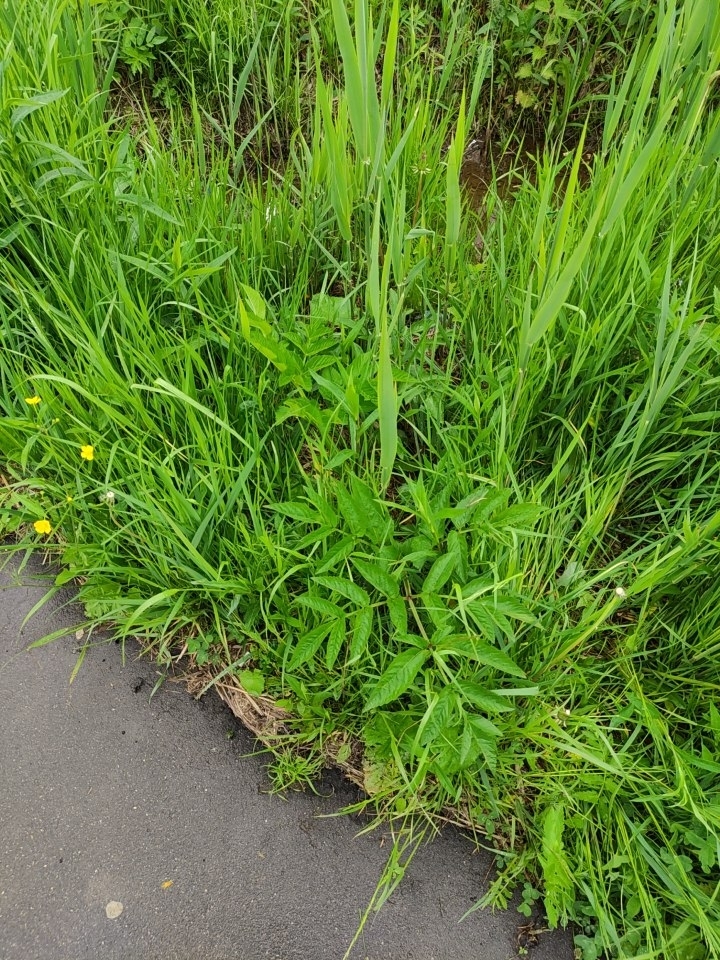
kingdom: Plantae
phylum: Tracheophyta
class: Magnoliopsida
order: Apiales
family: Apiaceae
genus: Angelica
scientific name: Angelica sylvestris
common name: Wild angelica
